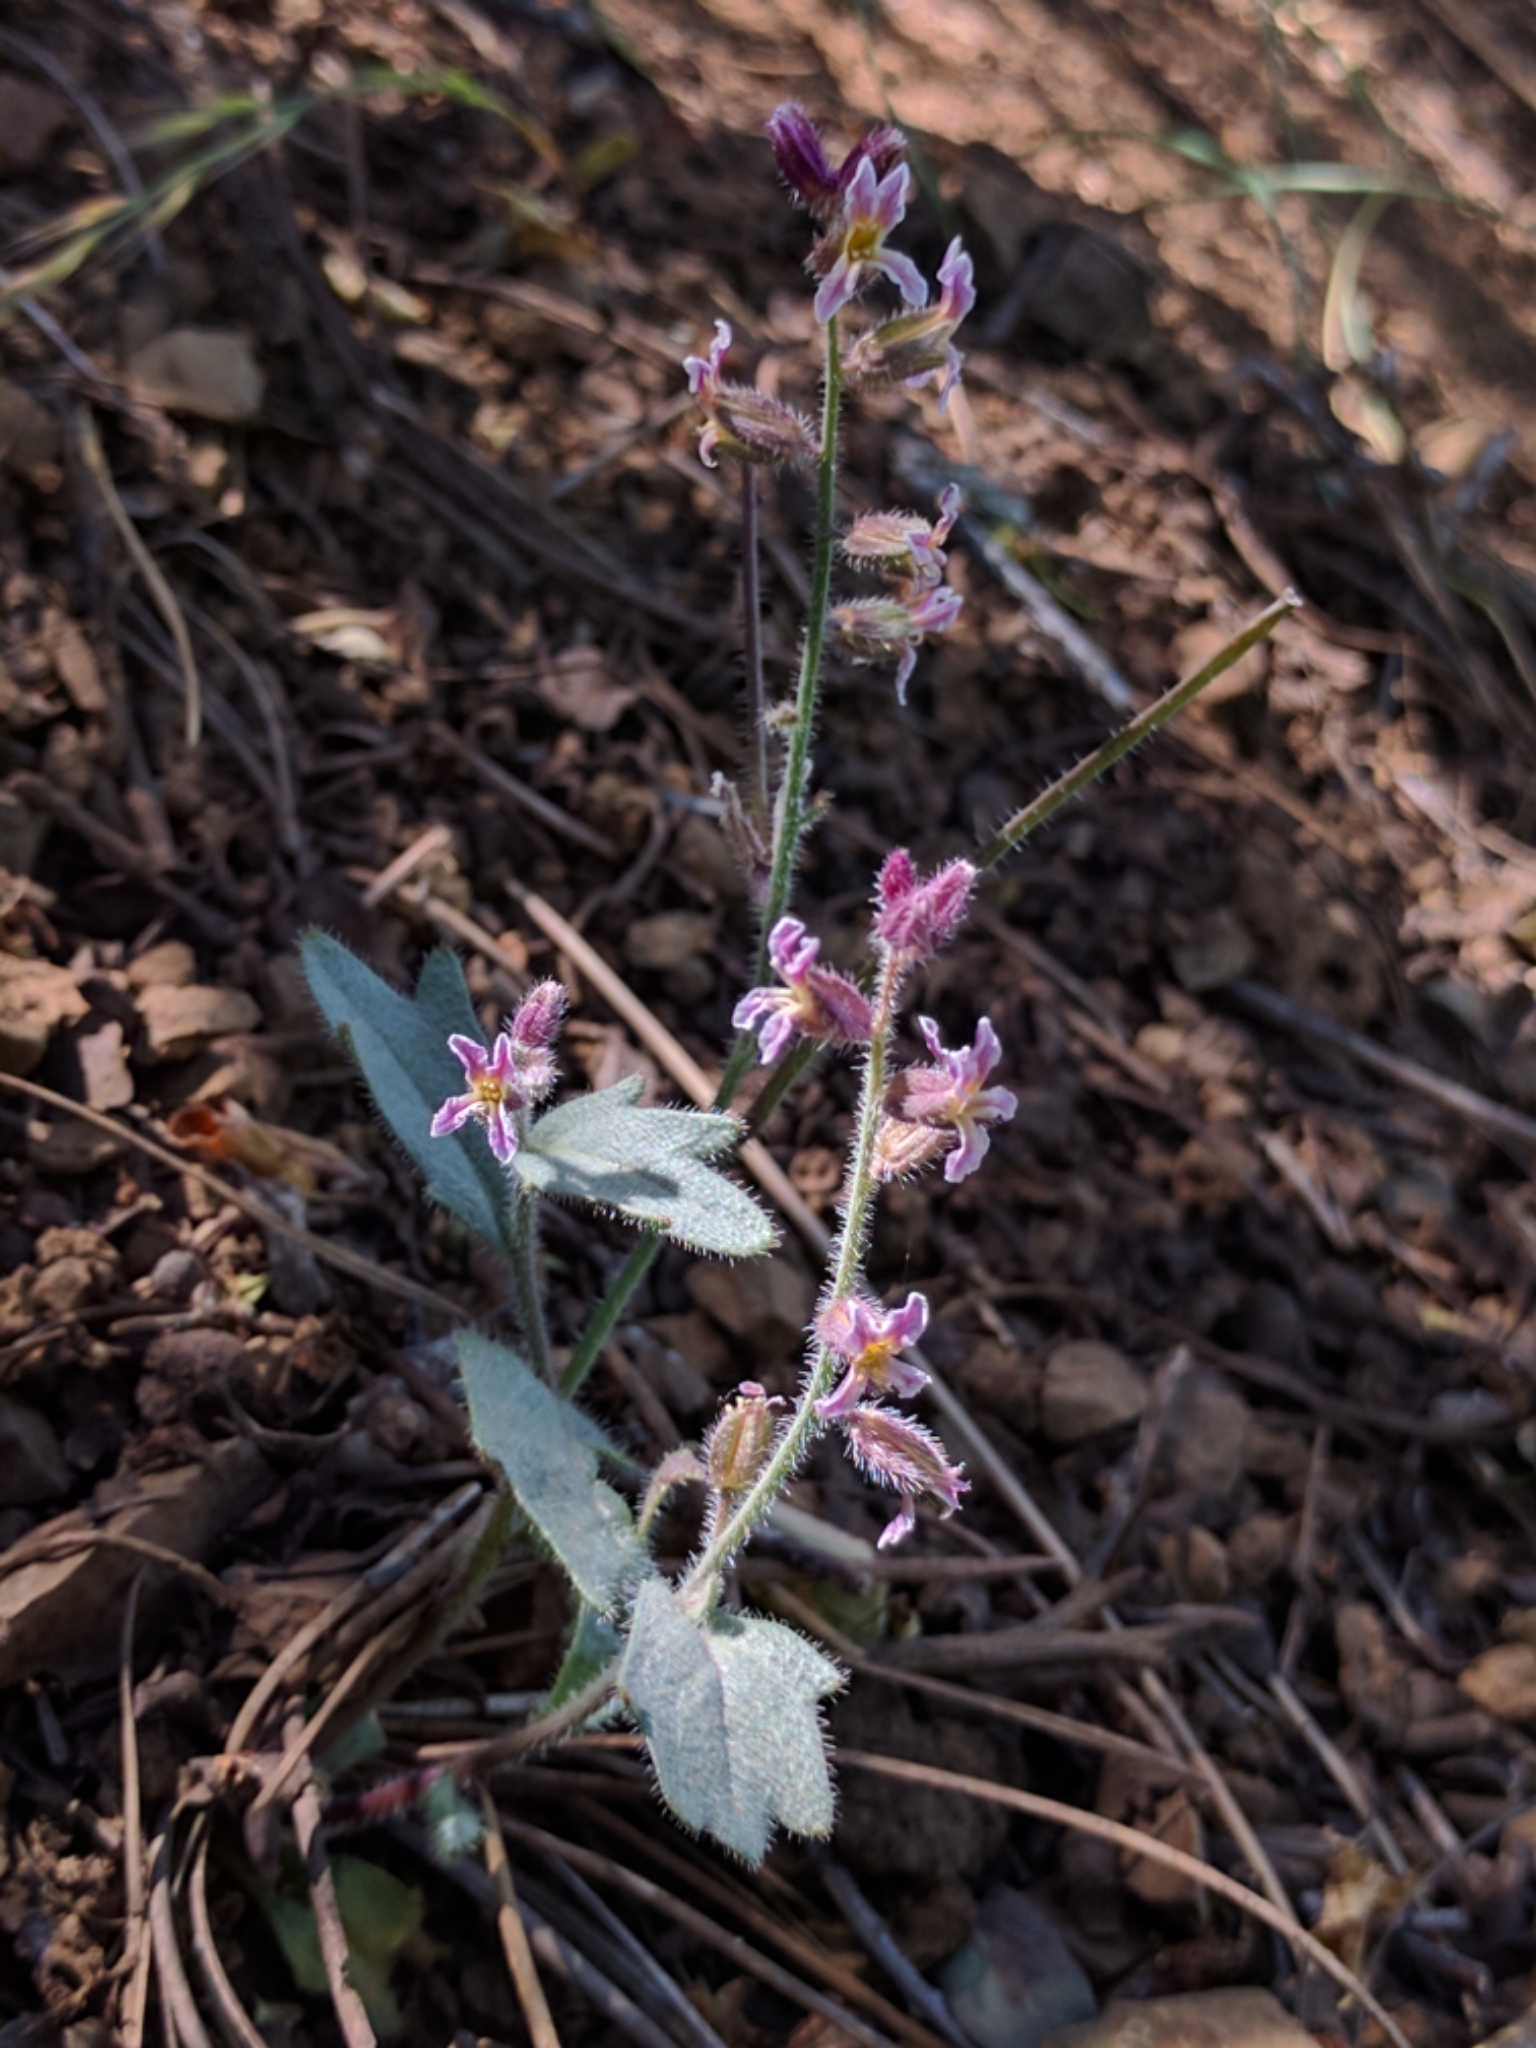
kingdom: Plantae
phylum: Tracheophyta
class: Magnoliopsida
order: Brassicales
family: Brassicaceae
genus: Streptanthus
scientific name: Streptanthus hispidus
